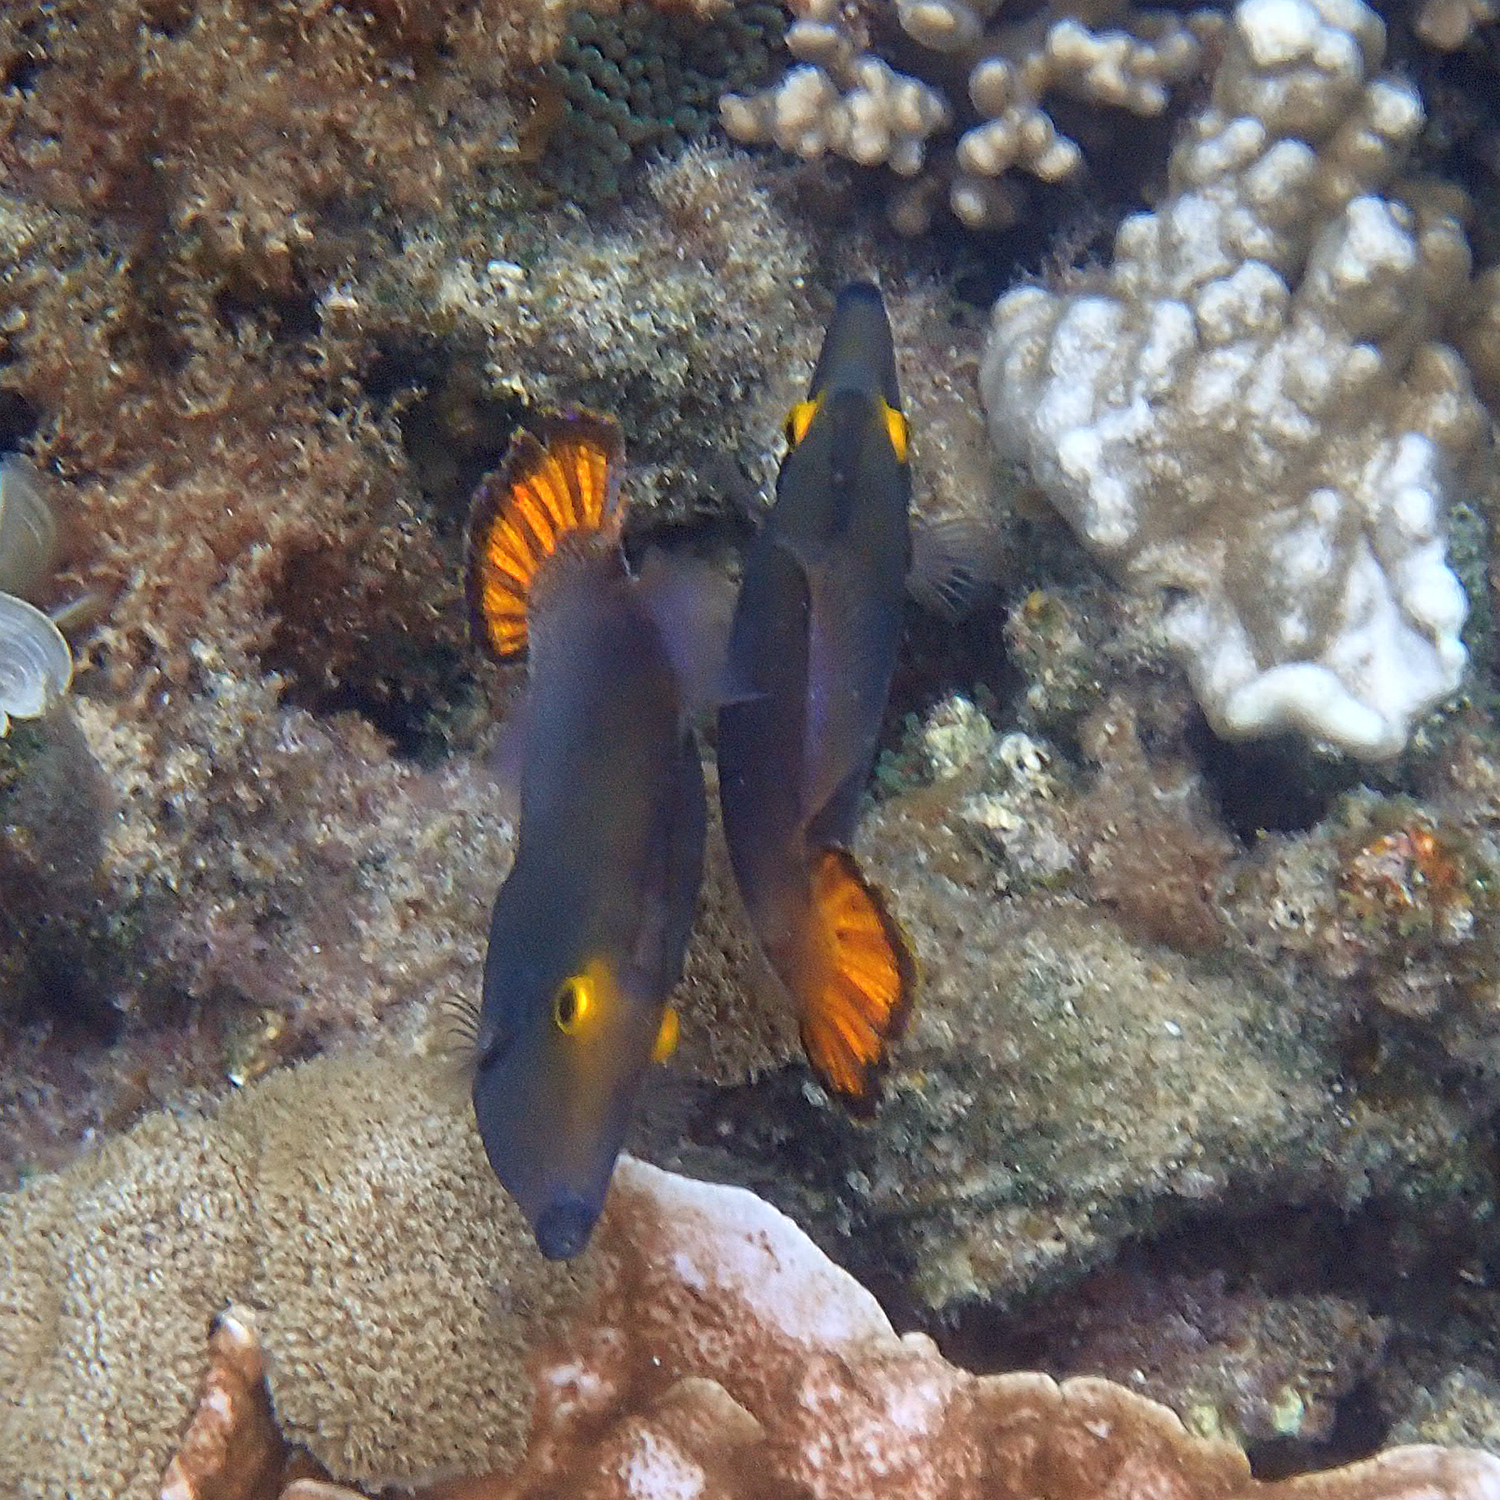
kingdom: Animalia
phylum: Chordata
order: Tetraodontiformes
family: Monacanthidae
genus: Pervagor
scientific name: Pervagor alternans
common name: Yelloweye filefish
